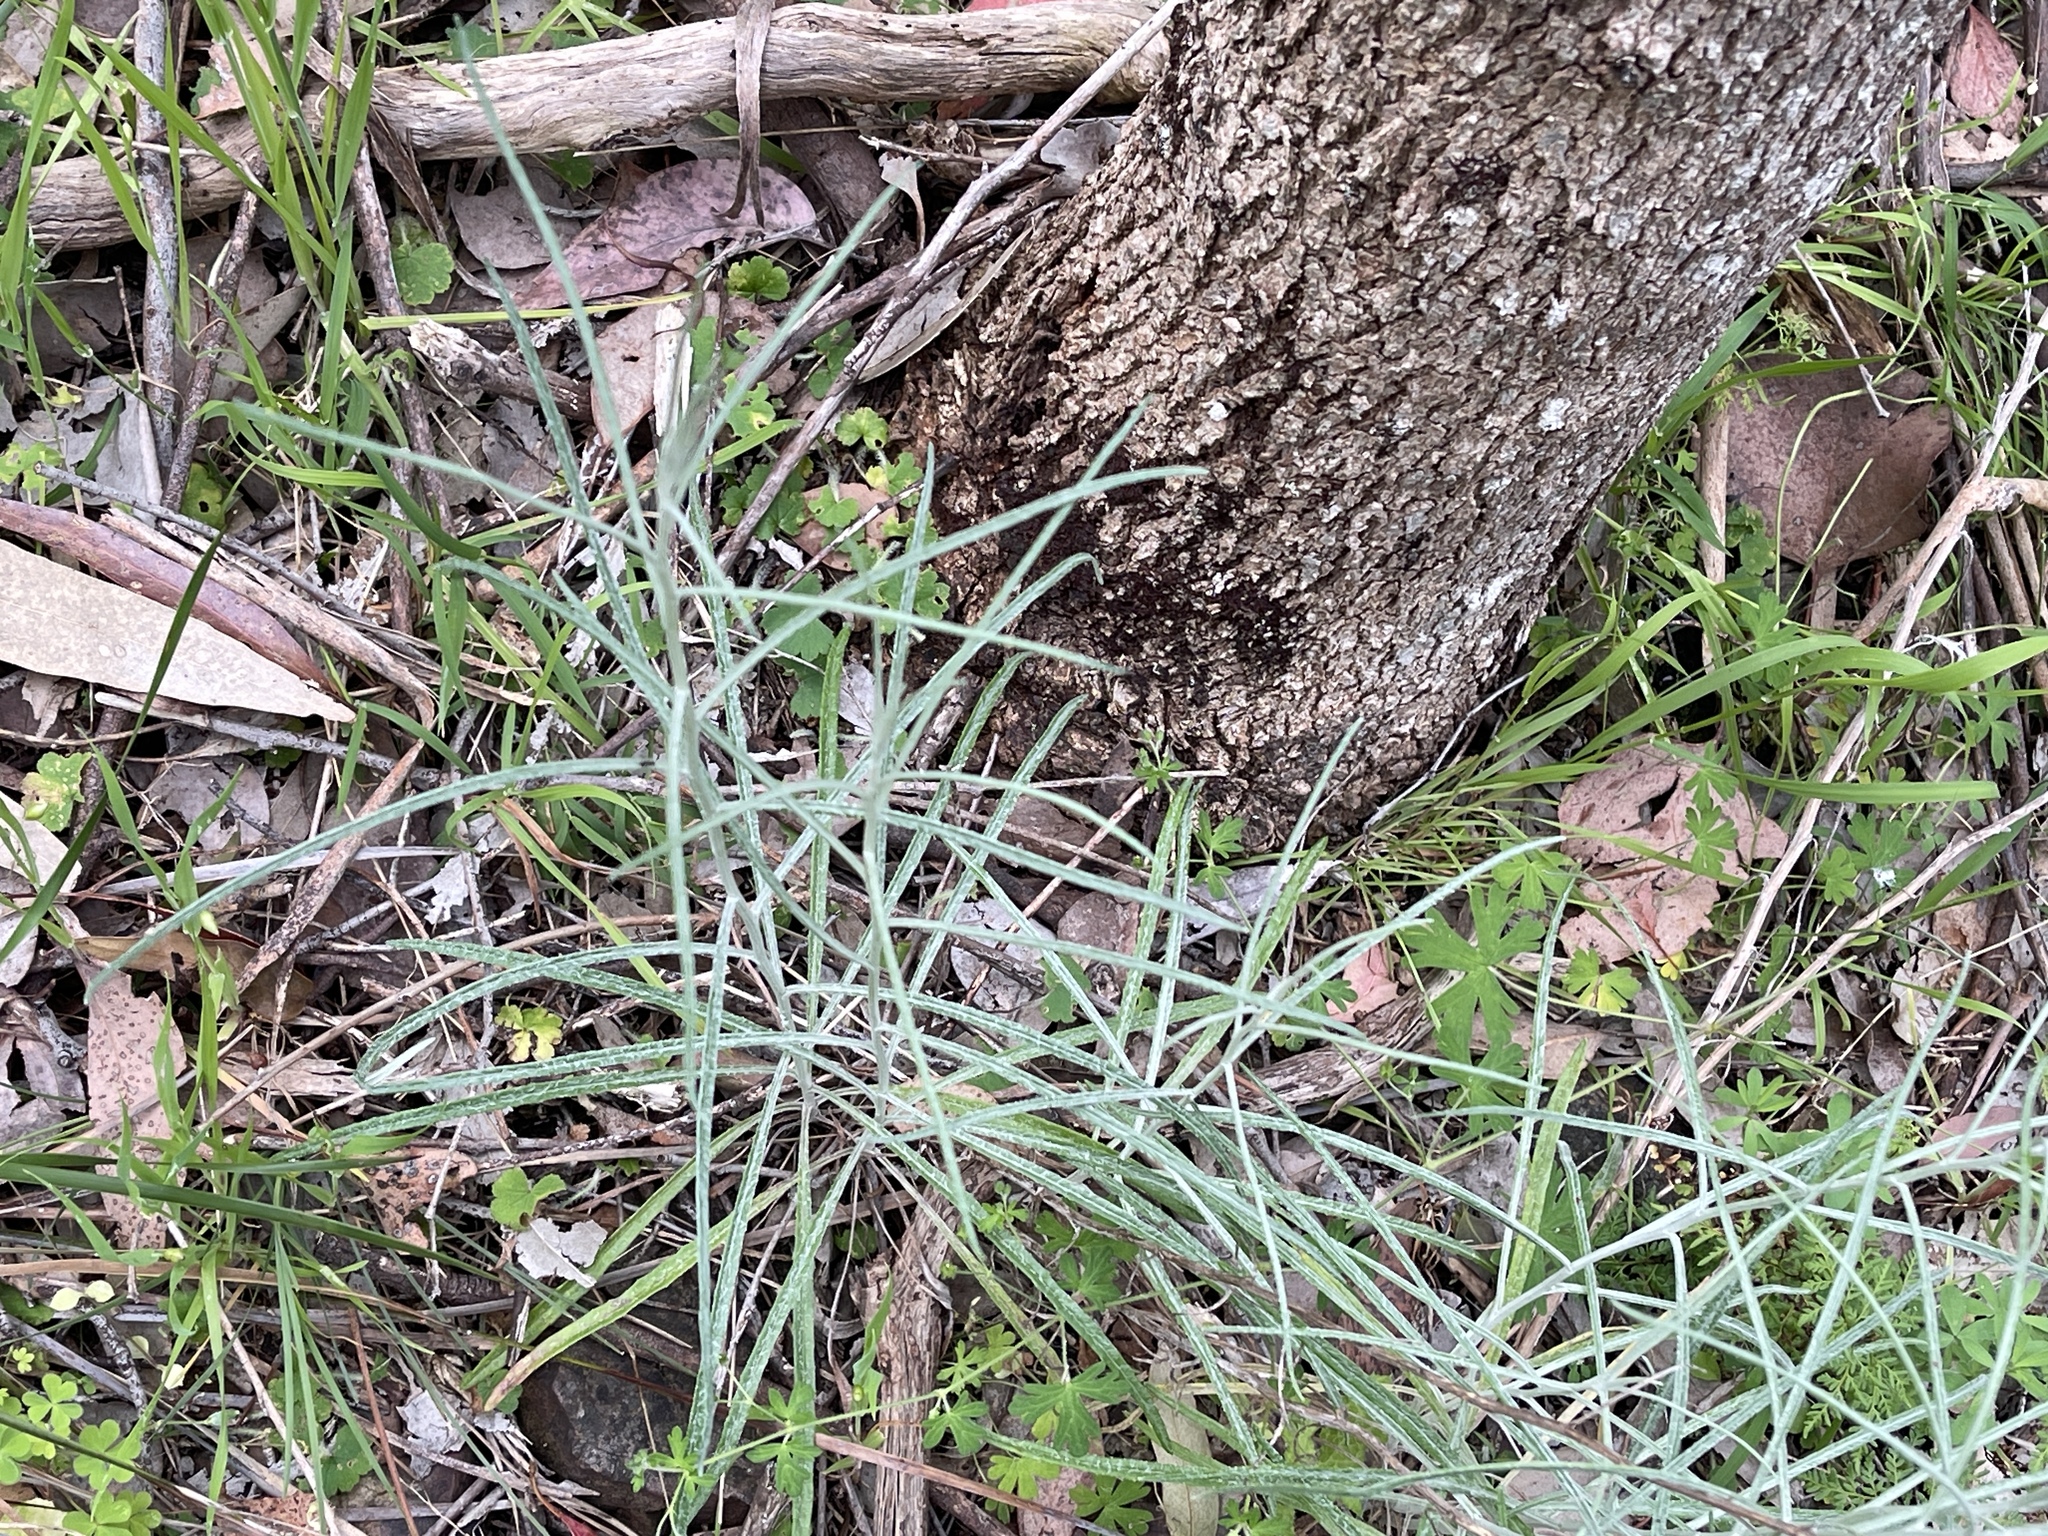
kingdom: Plantae
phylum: Tracheophyta
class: Magnoliopsida
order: Asterales
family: Asteraceae
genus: Senecio
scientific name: Senecio quadridentatus
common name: Cotton fireweed
